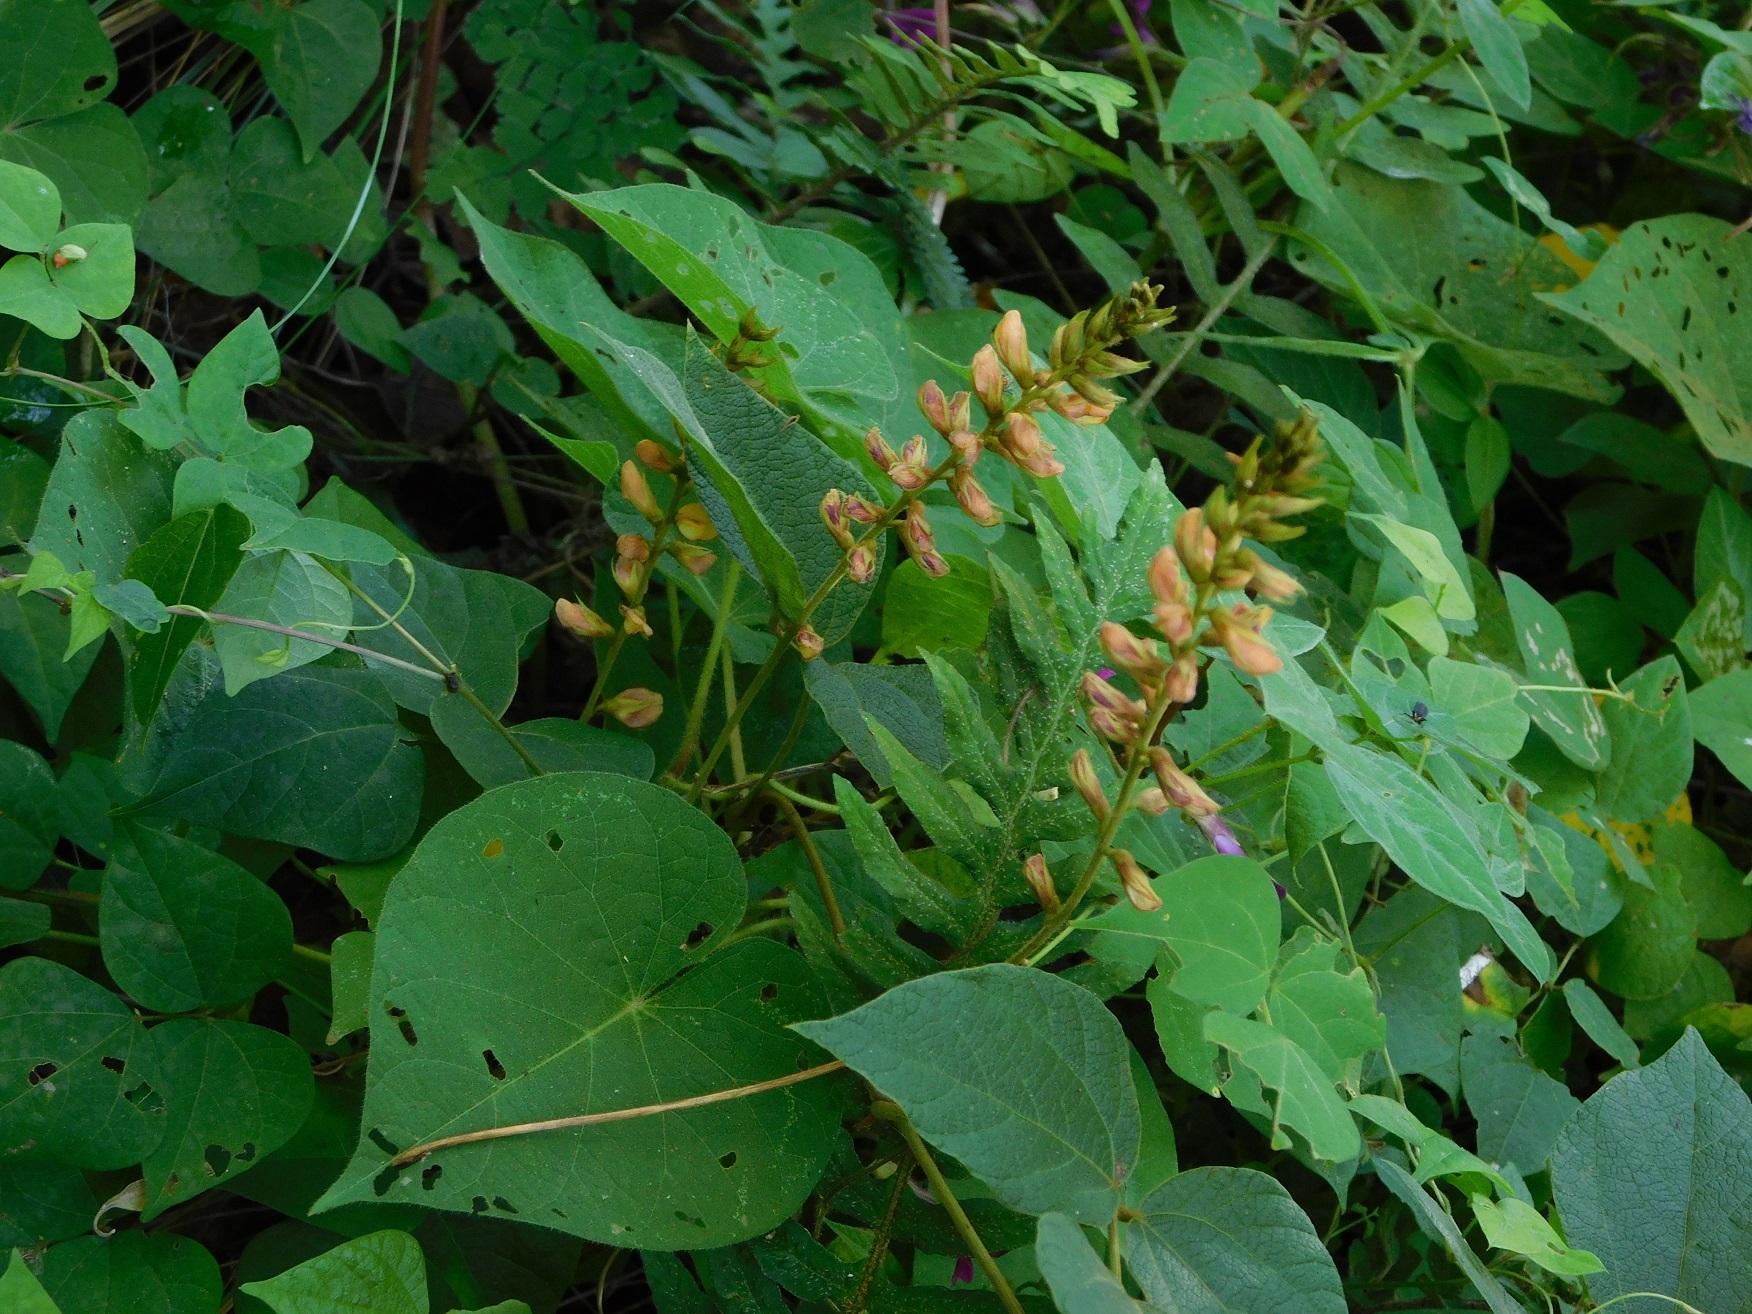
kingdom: Plantae
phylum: Tracheophyta
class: Magnoliopsida
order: Fabales
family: Fabaceae
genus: Rhynchosia
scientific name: Rhynchosia longeracemosa
